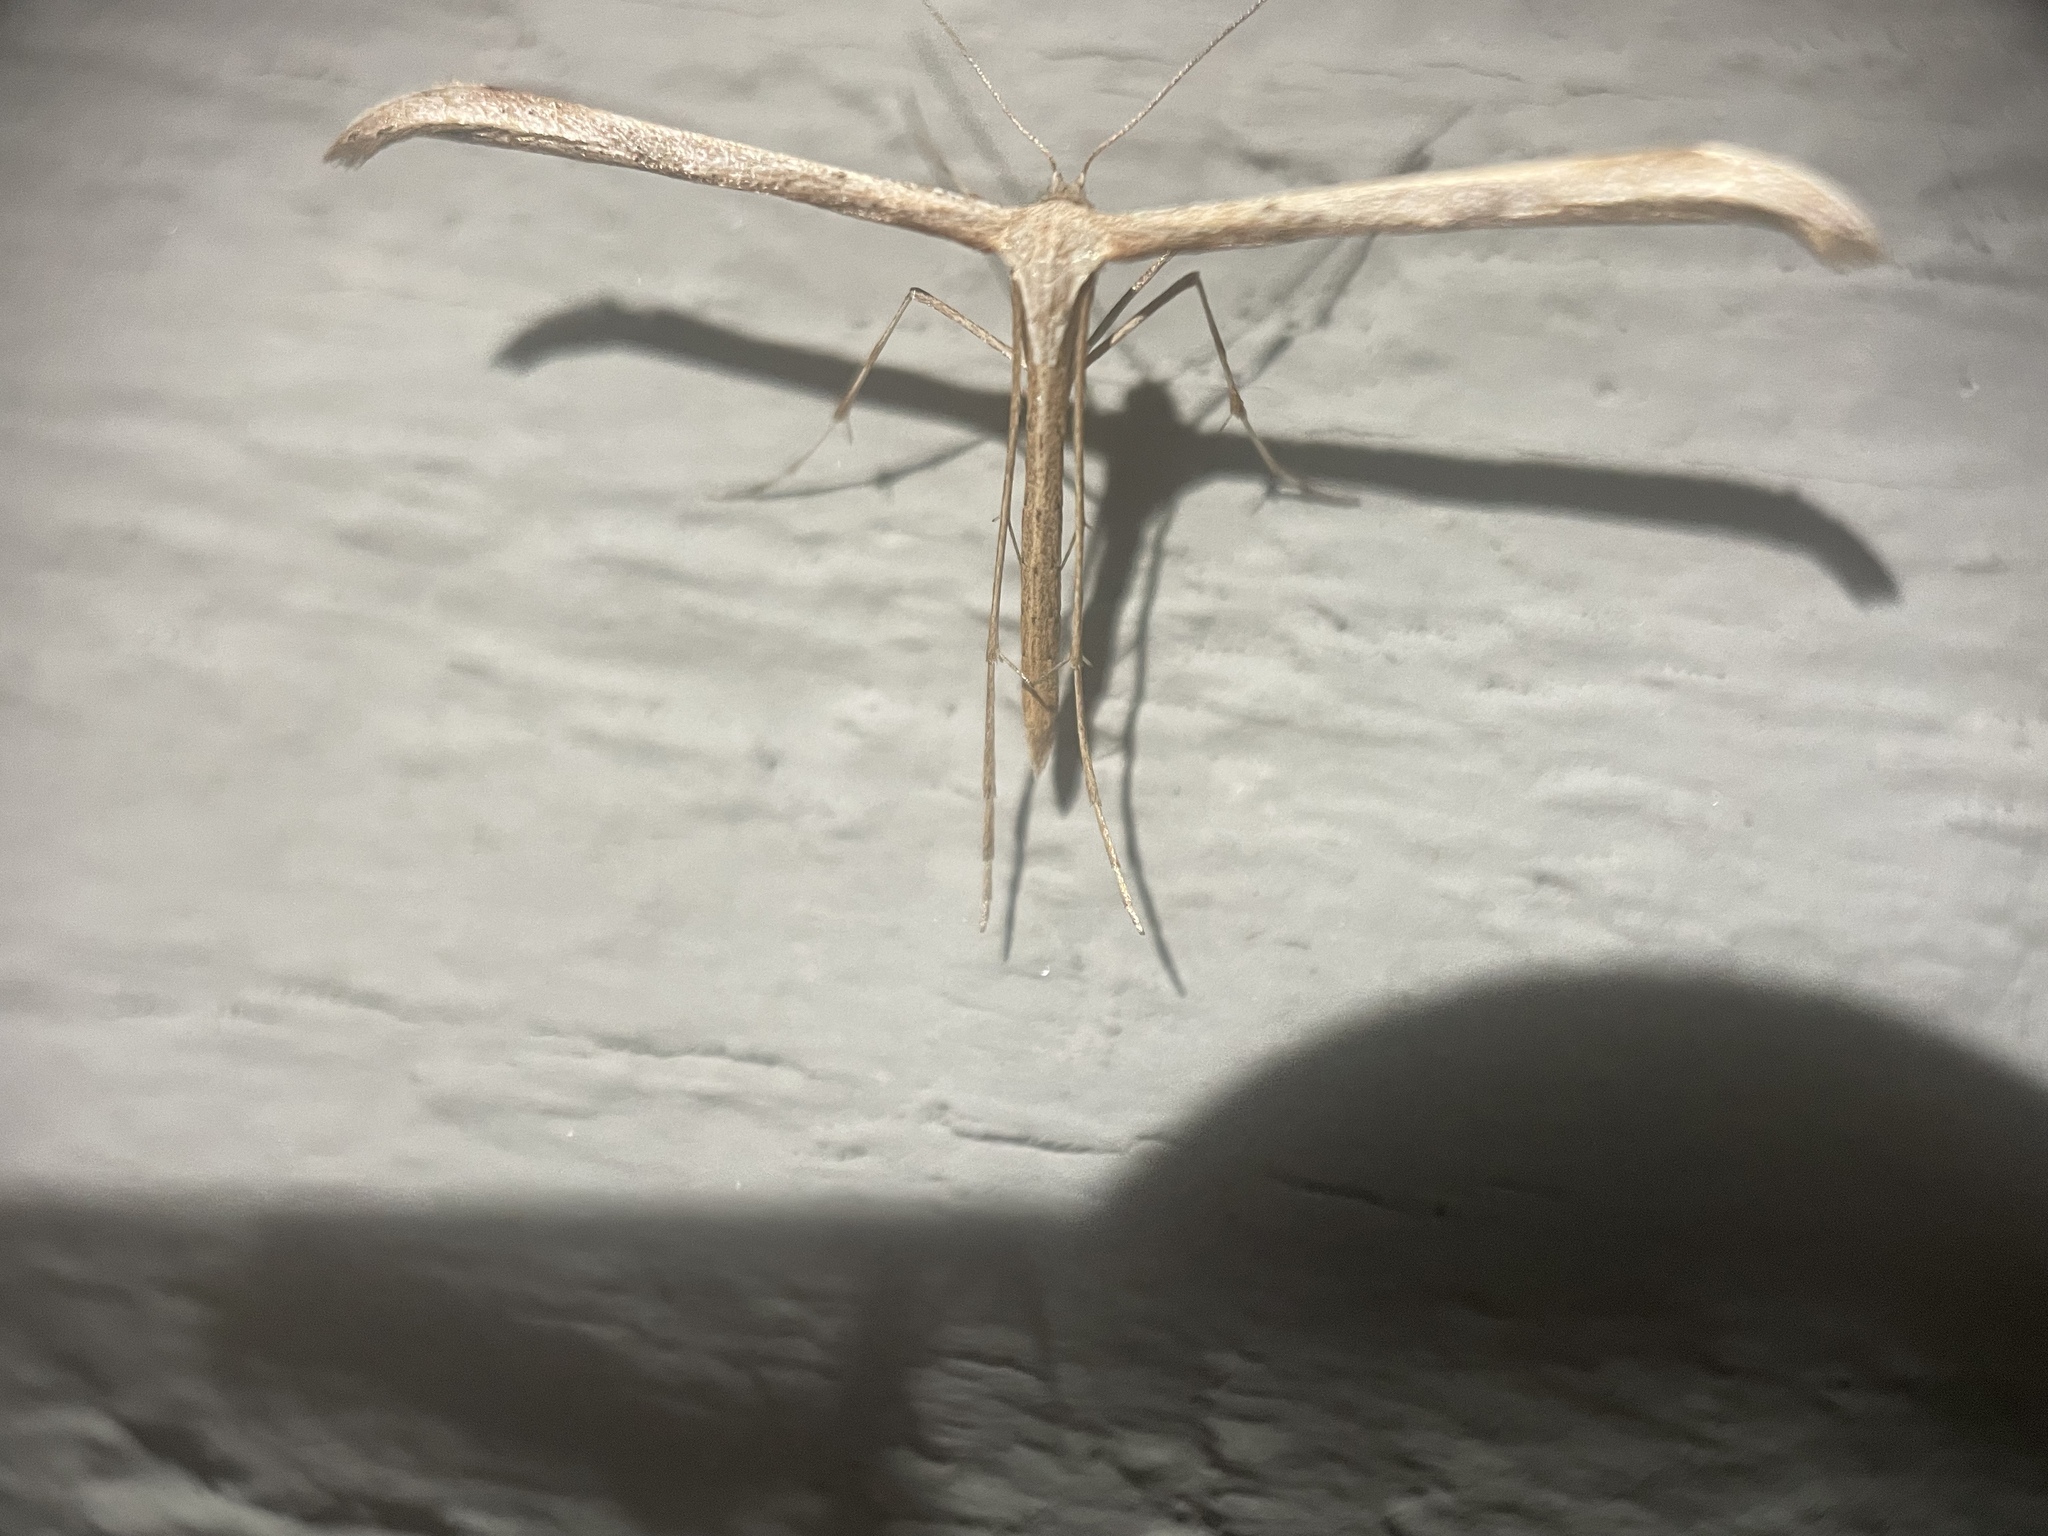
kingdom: Animalia
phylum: Arthropoda
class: Insecta
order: Lepidoptera
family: Pterophoridae
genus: Emmelina
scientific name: Emmelina monodactyla
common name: Common plume
